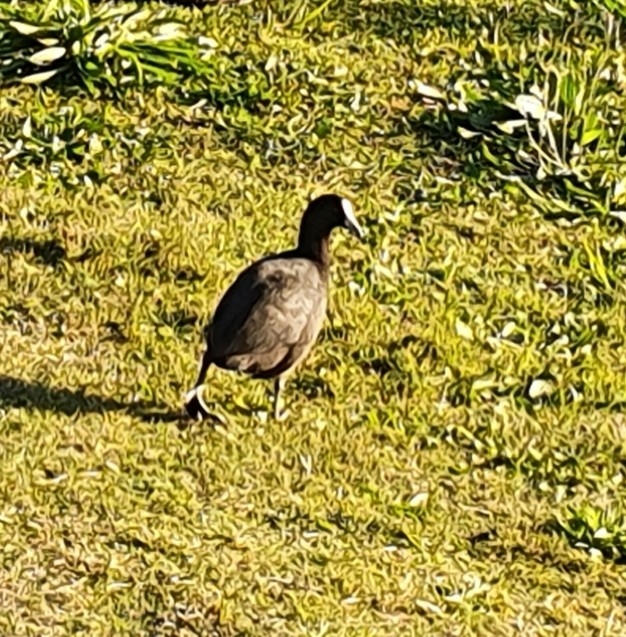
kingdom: Animalia
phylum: Chordata
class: Aves
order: Gruiformes
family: Rallidae
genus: Fulica
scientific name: Fulica atra
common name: Eurasian coot
